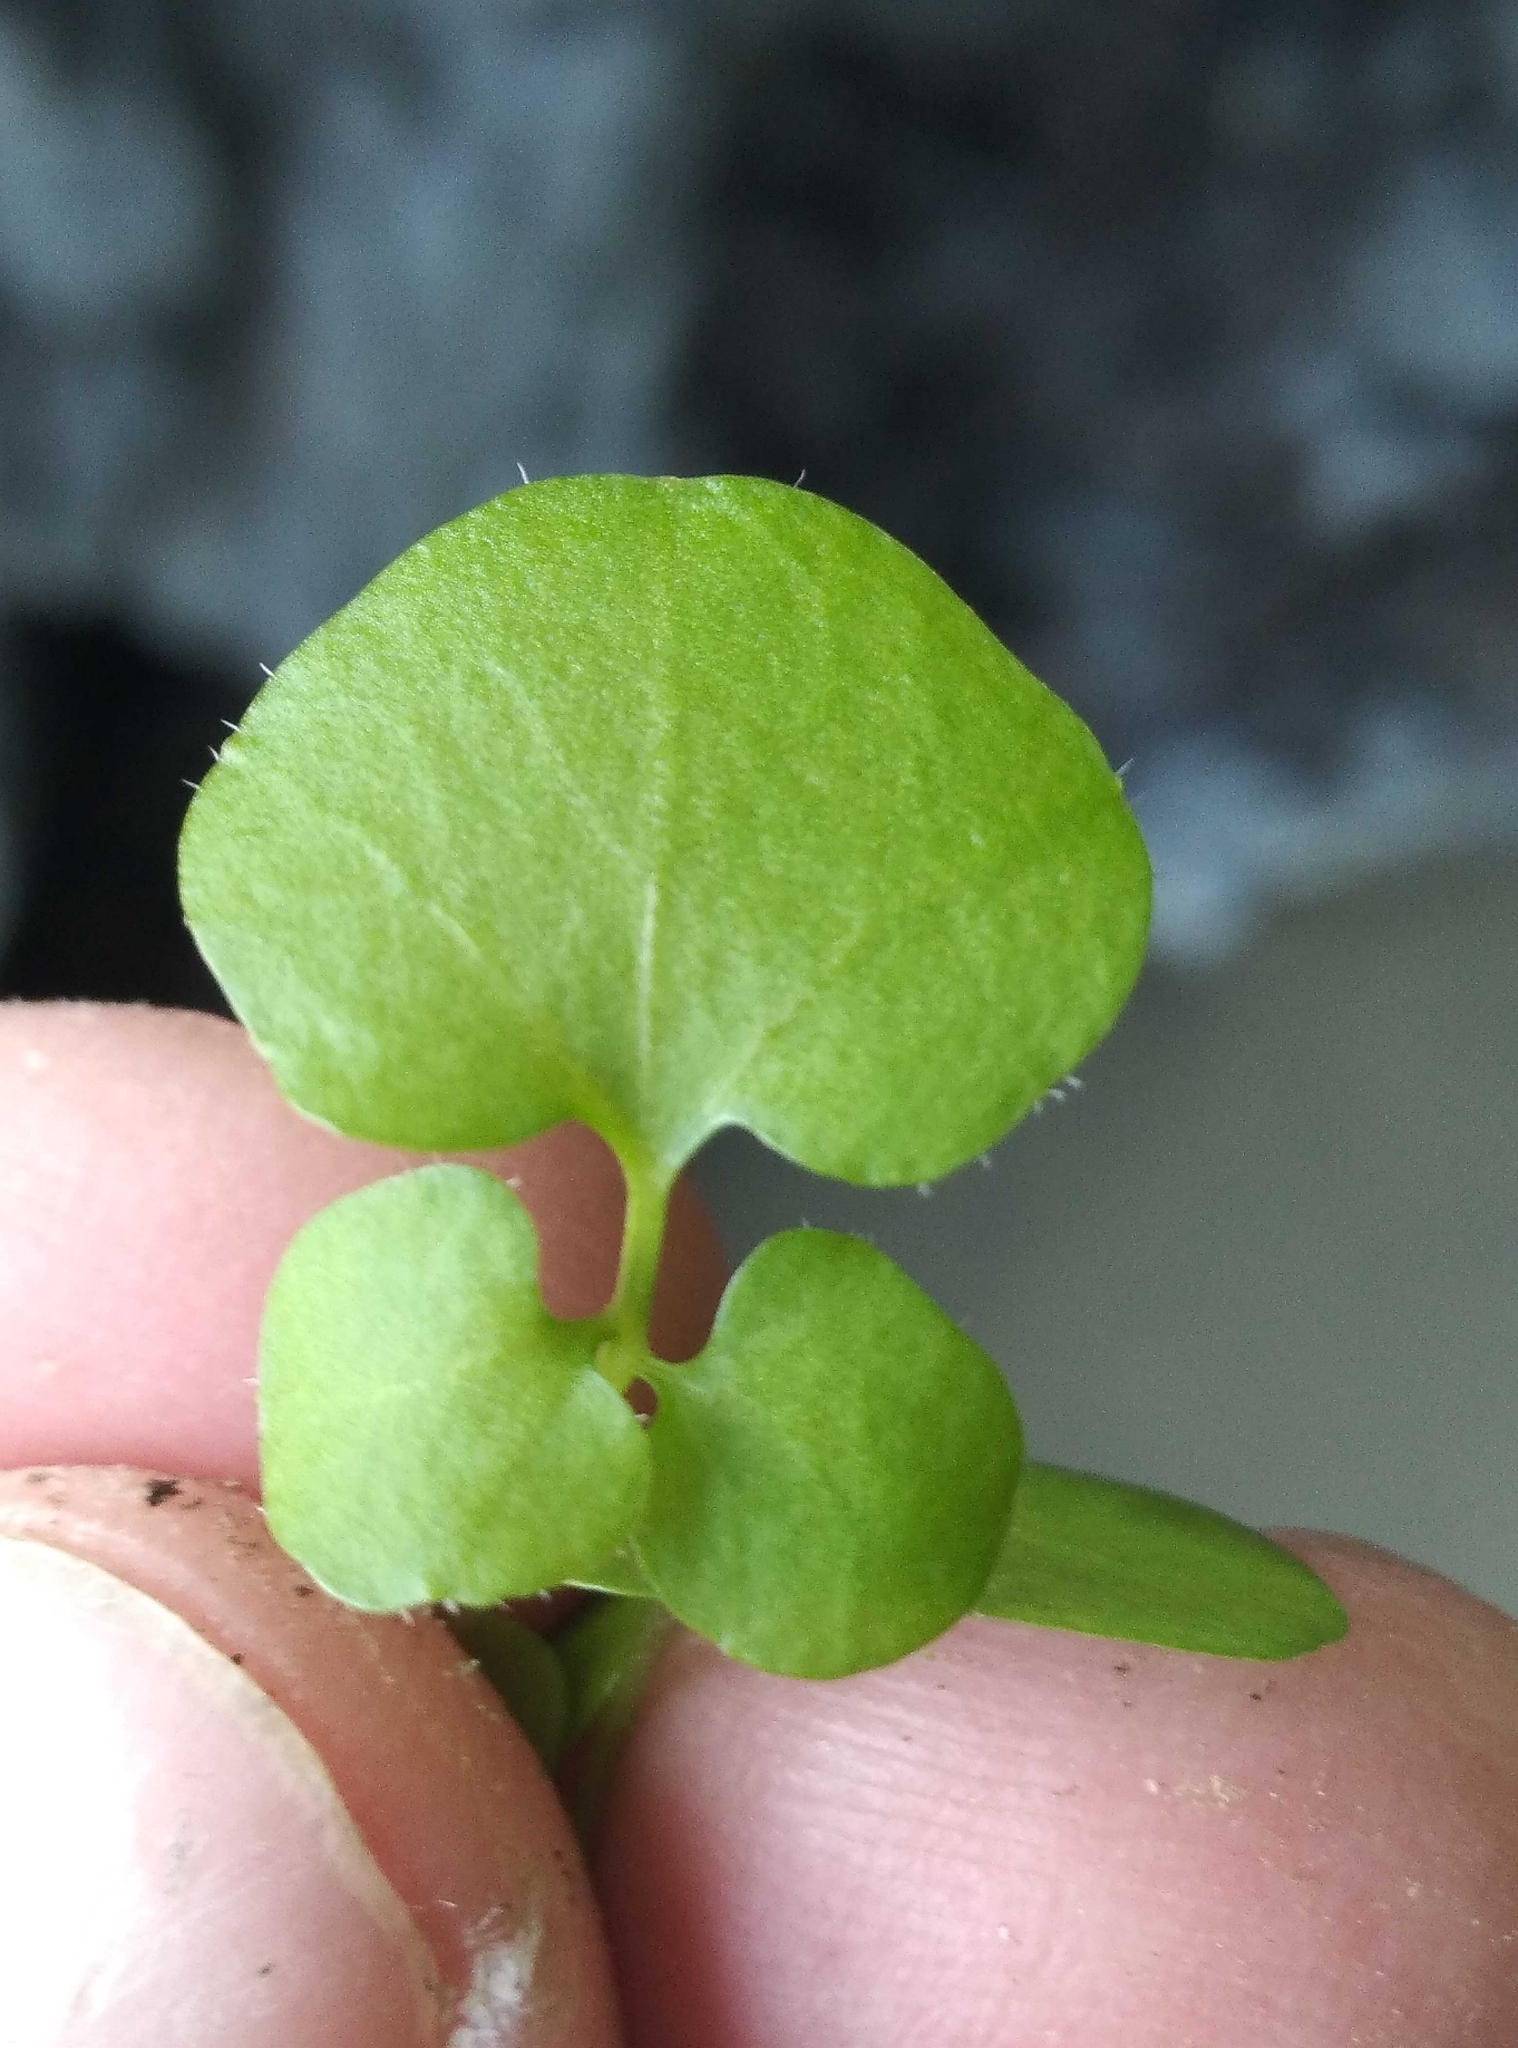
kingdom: Plantae
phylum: Tracheophyta
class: Magnoliopsida
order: Brassicales
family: Brassicaceae
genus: Cardamine
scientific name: Cardamine intonsa
